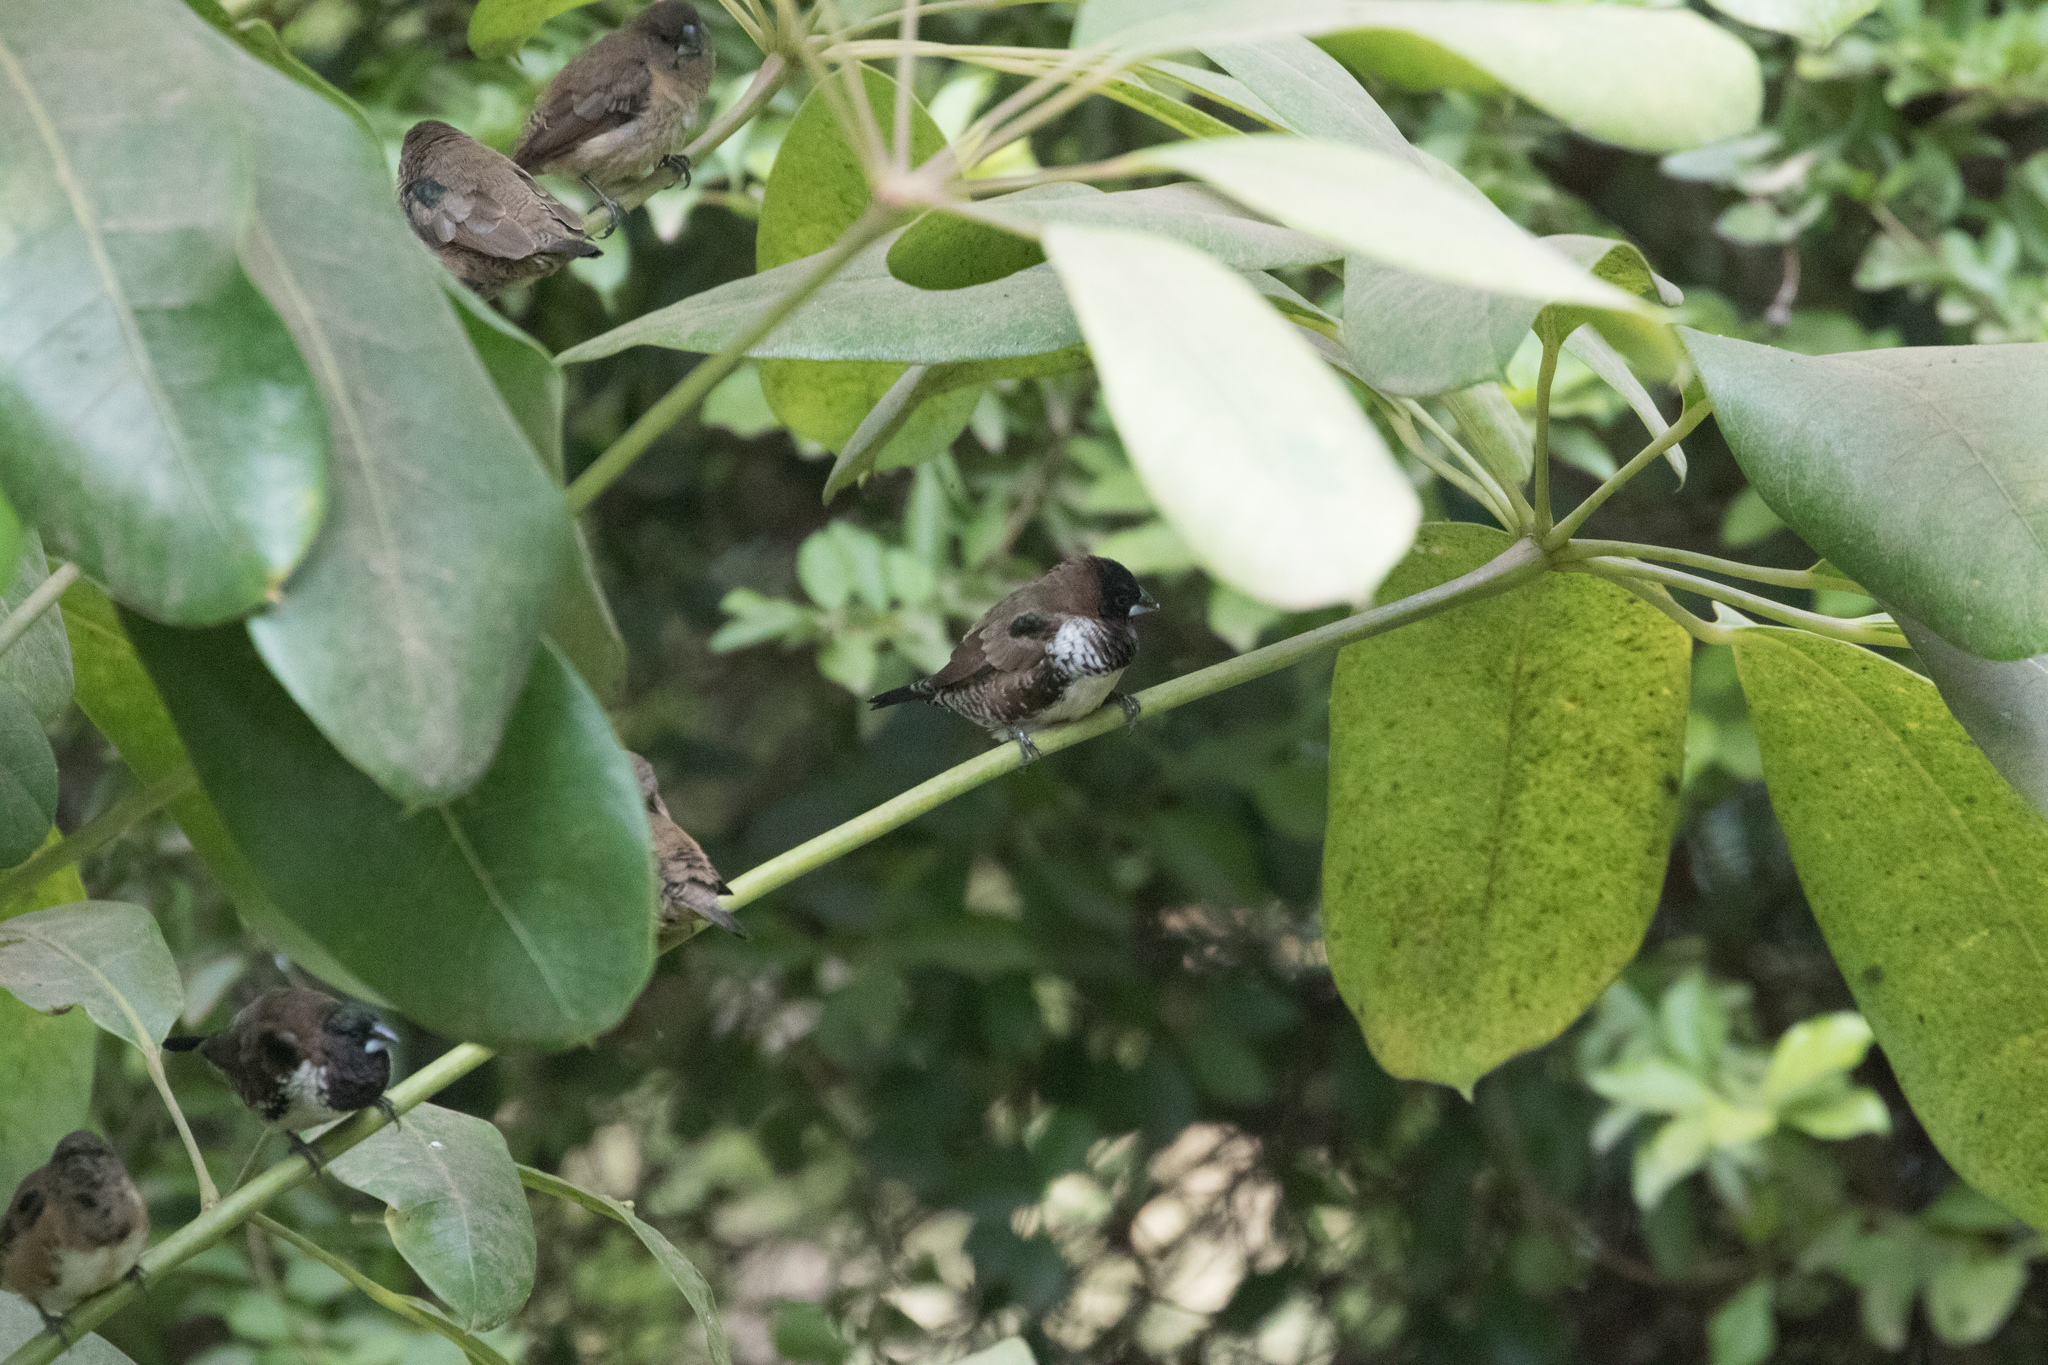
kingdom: Animalia
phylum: Chordata
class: Aves
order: Passeriformes
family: Estrildidae
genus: Lonchura
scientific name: Lonchura cucullata
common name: Bronze mannikin
